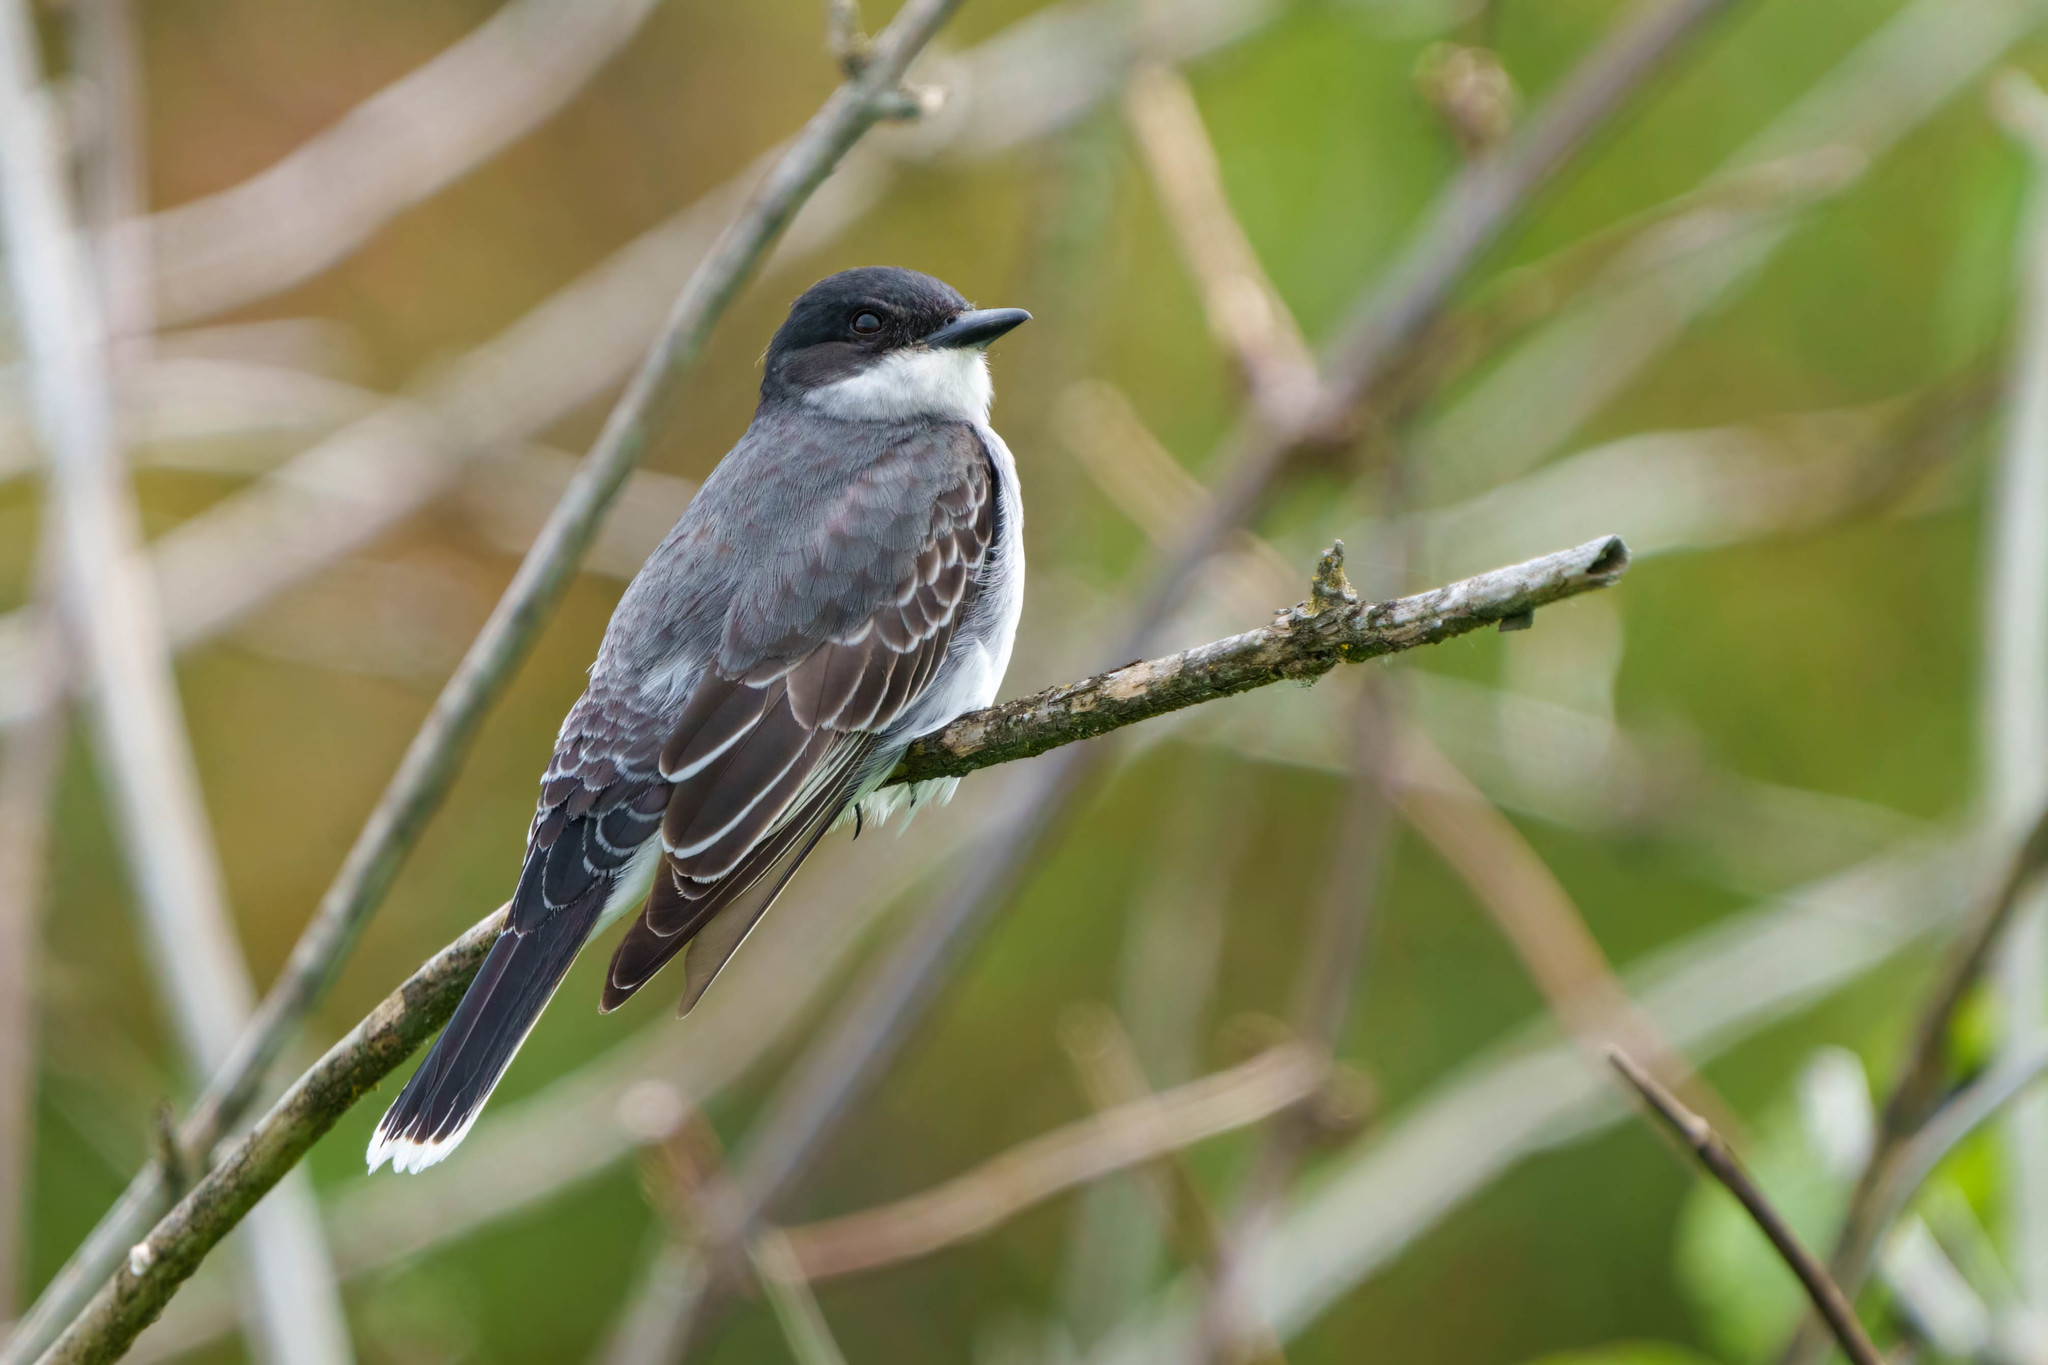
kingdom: Animalia
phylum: Chordata
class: Aves
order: Passeriformes
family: Tyrannidae
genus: Tyrannus
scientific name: Tyrannus tyrannus
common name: Eastern kingbird
